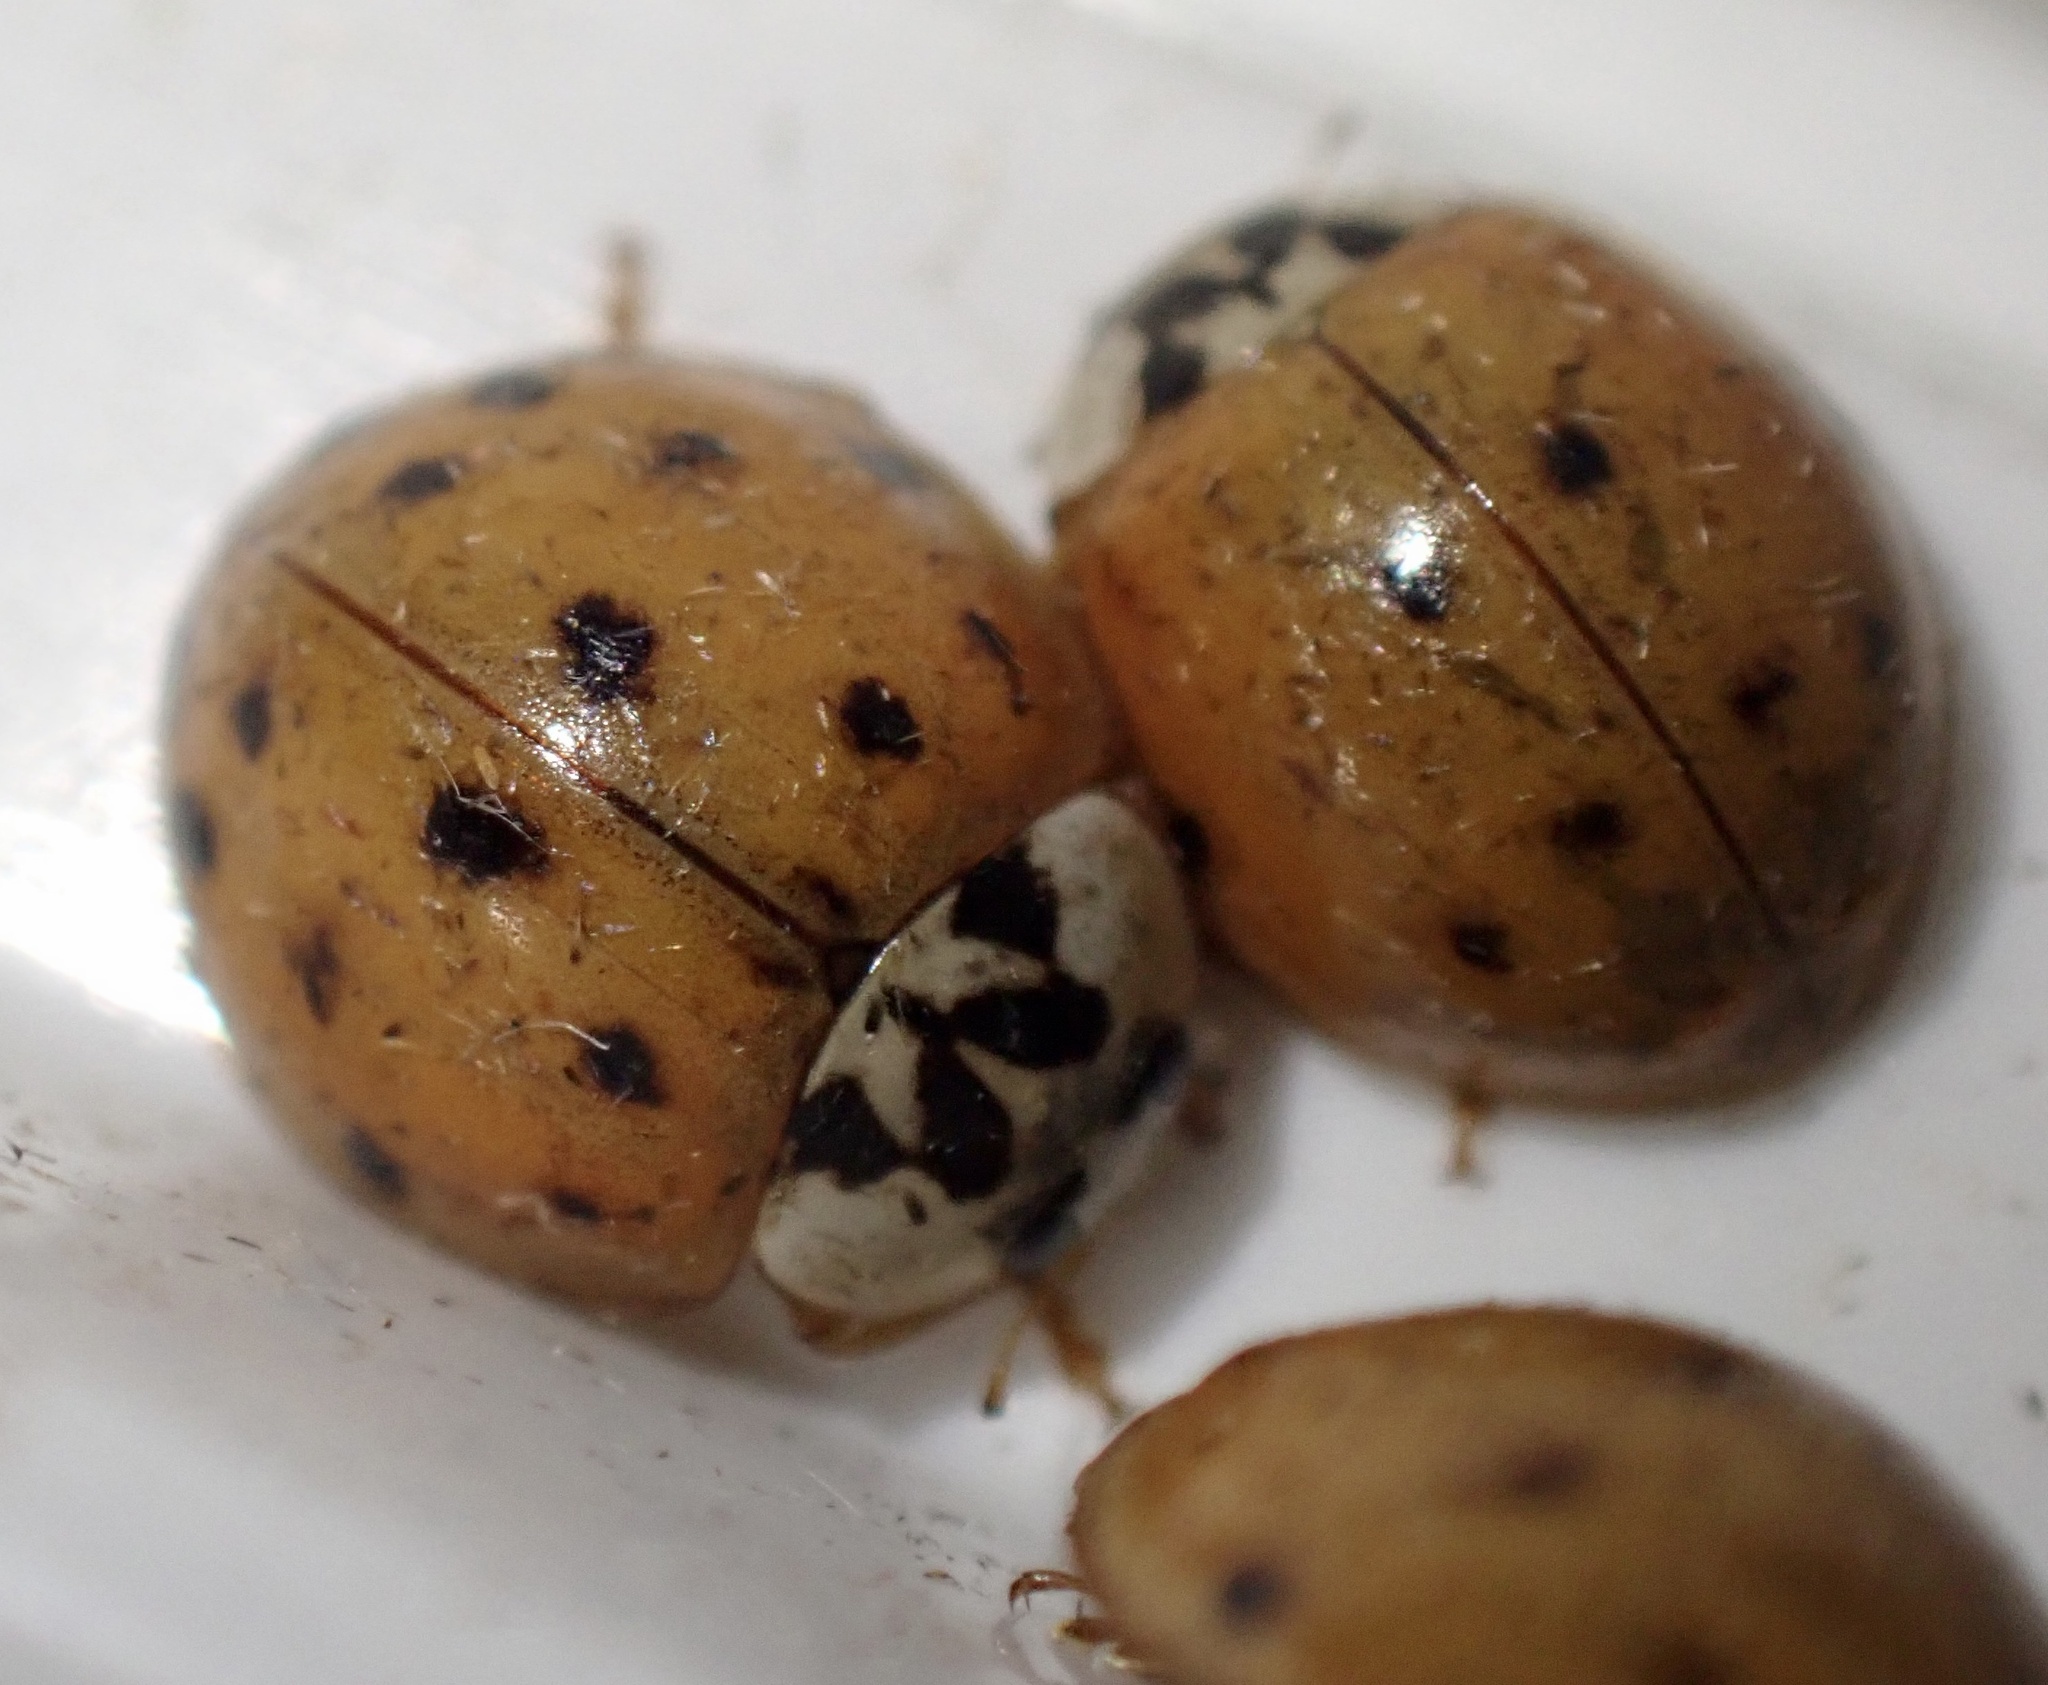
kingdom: Animalia
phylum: Arthropoda
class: Insecta
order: Coleoptera
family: Coccinellidae
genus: Harmonia
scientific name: Harmonia axyridis
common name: Harlequin ladybird
